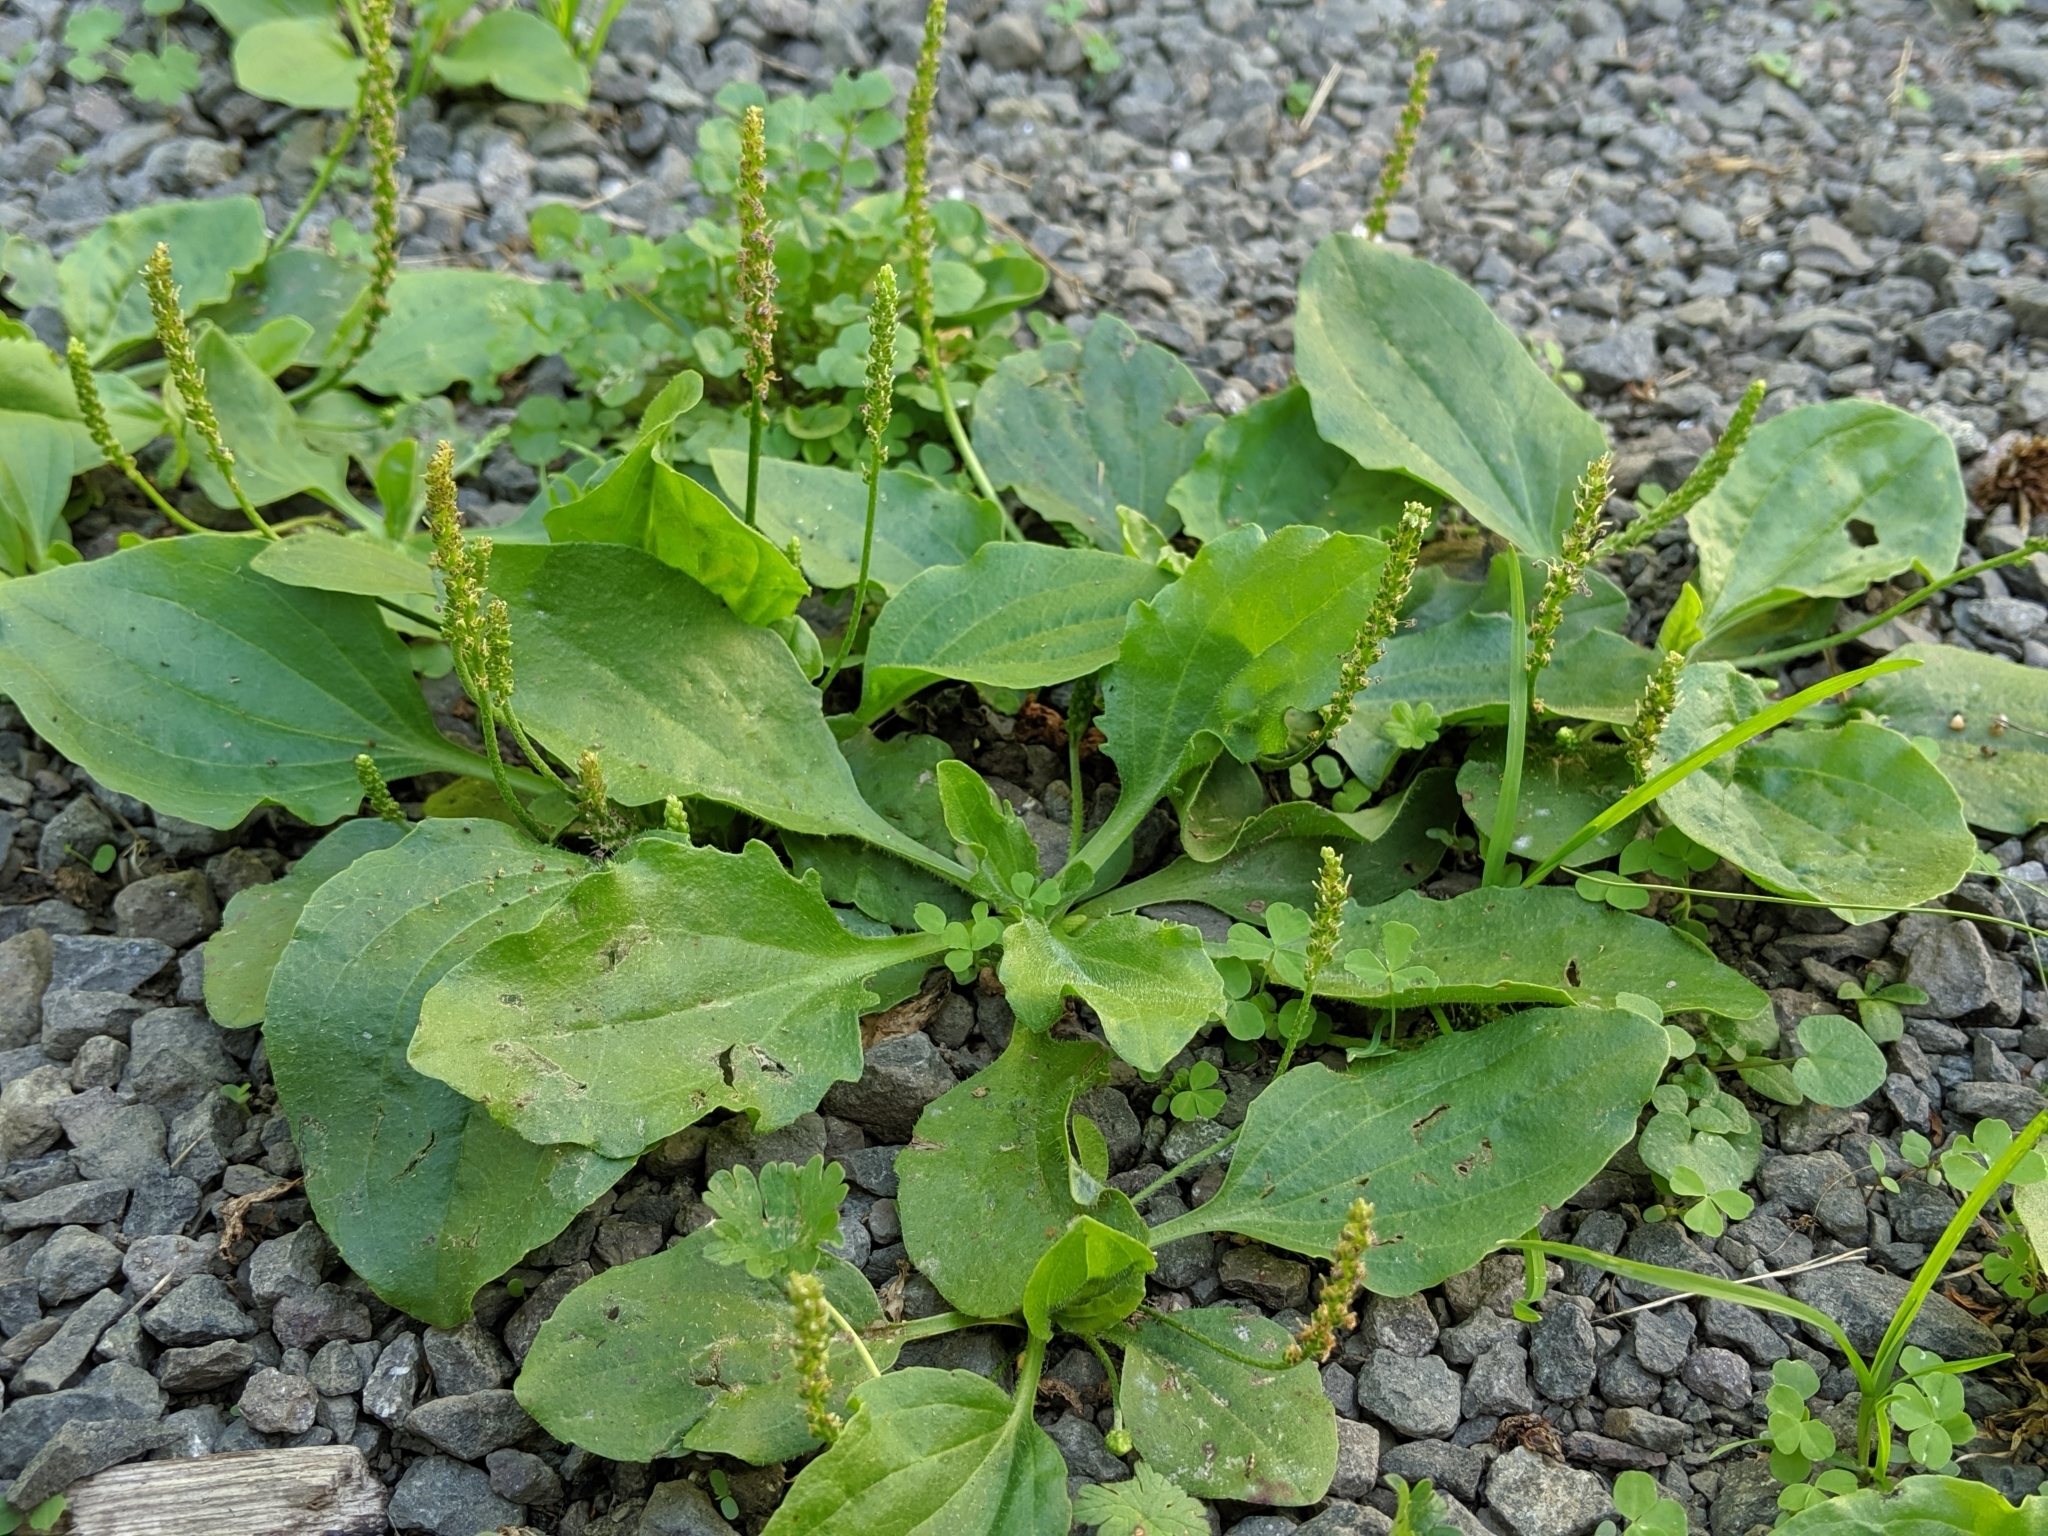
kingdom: Plantae
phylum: Tracheophyta
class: Magnoliopsida
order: Lamiales
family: Plantaginaceae
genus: Plantago
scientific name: Plantago major
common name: Common plantain
